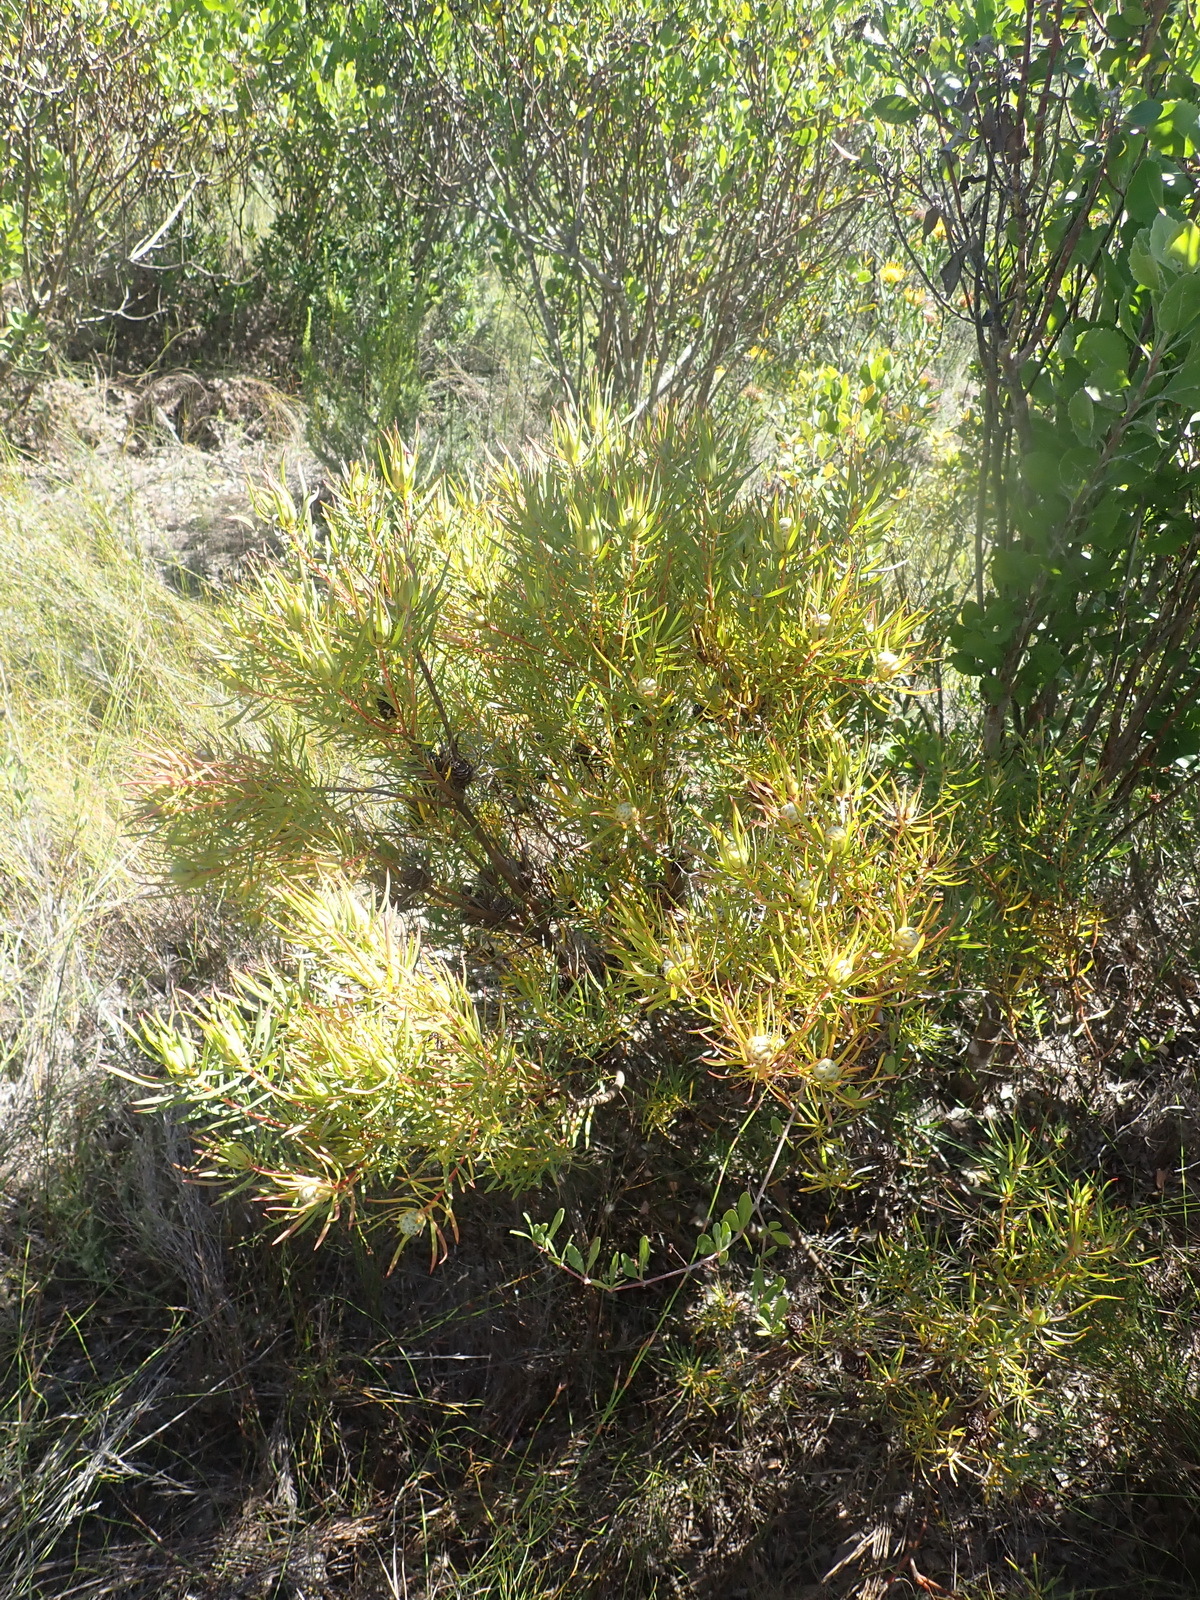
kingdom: Plantae
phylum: Tracheophyta
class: Magnoliopsida
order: Proteales
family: Proteaceae
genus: Leucadendron
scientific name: Leucadendron salignum
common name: Common sunshine conebush
